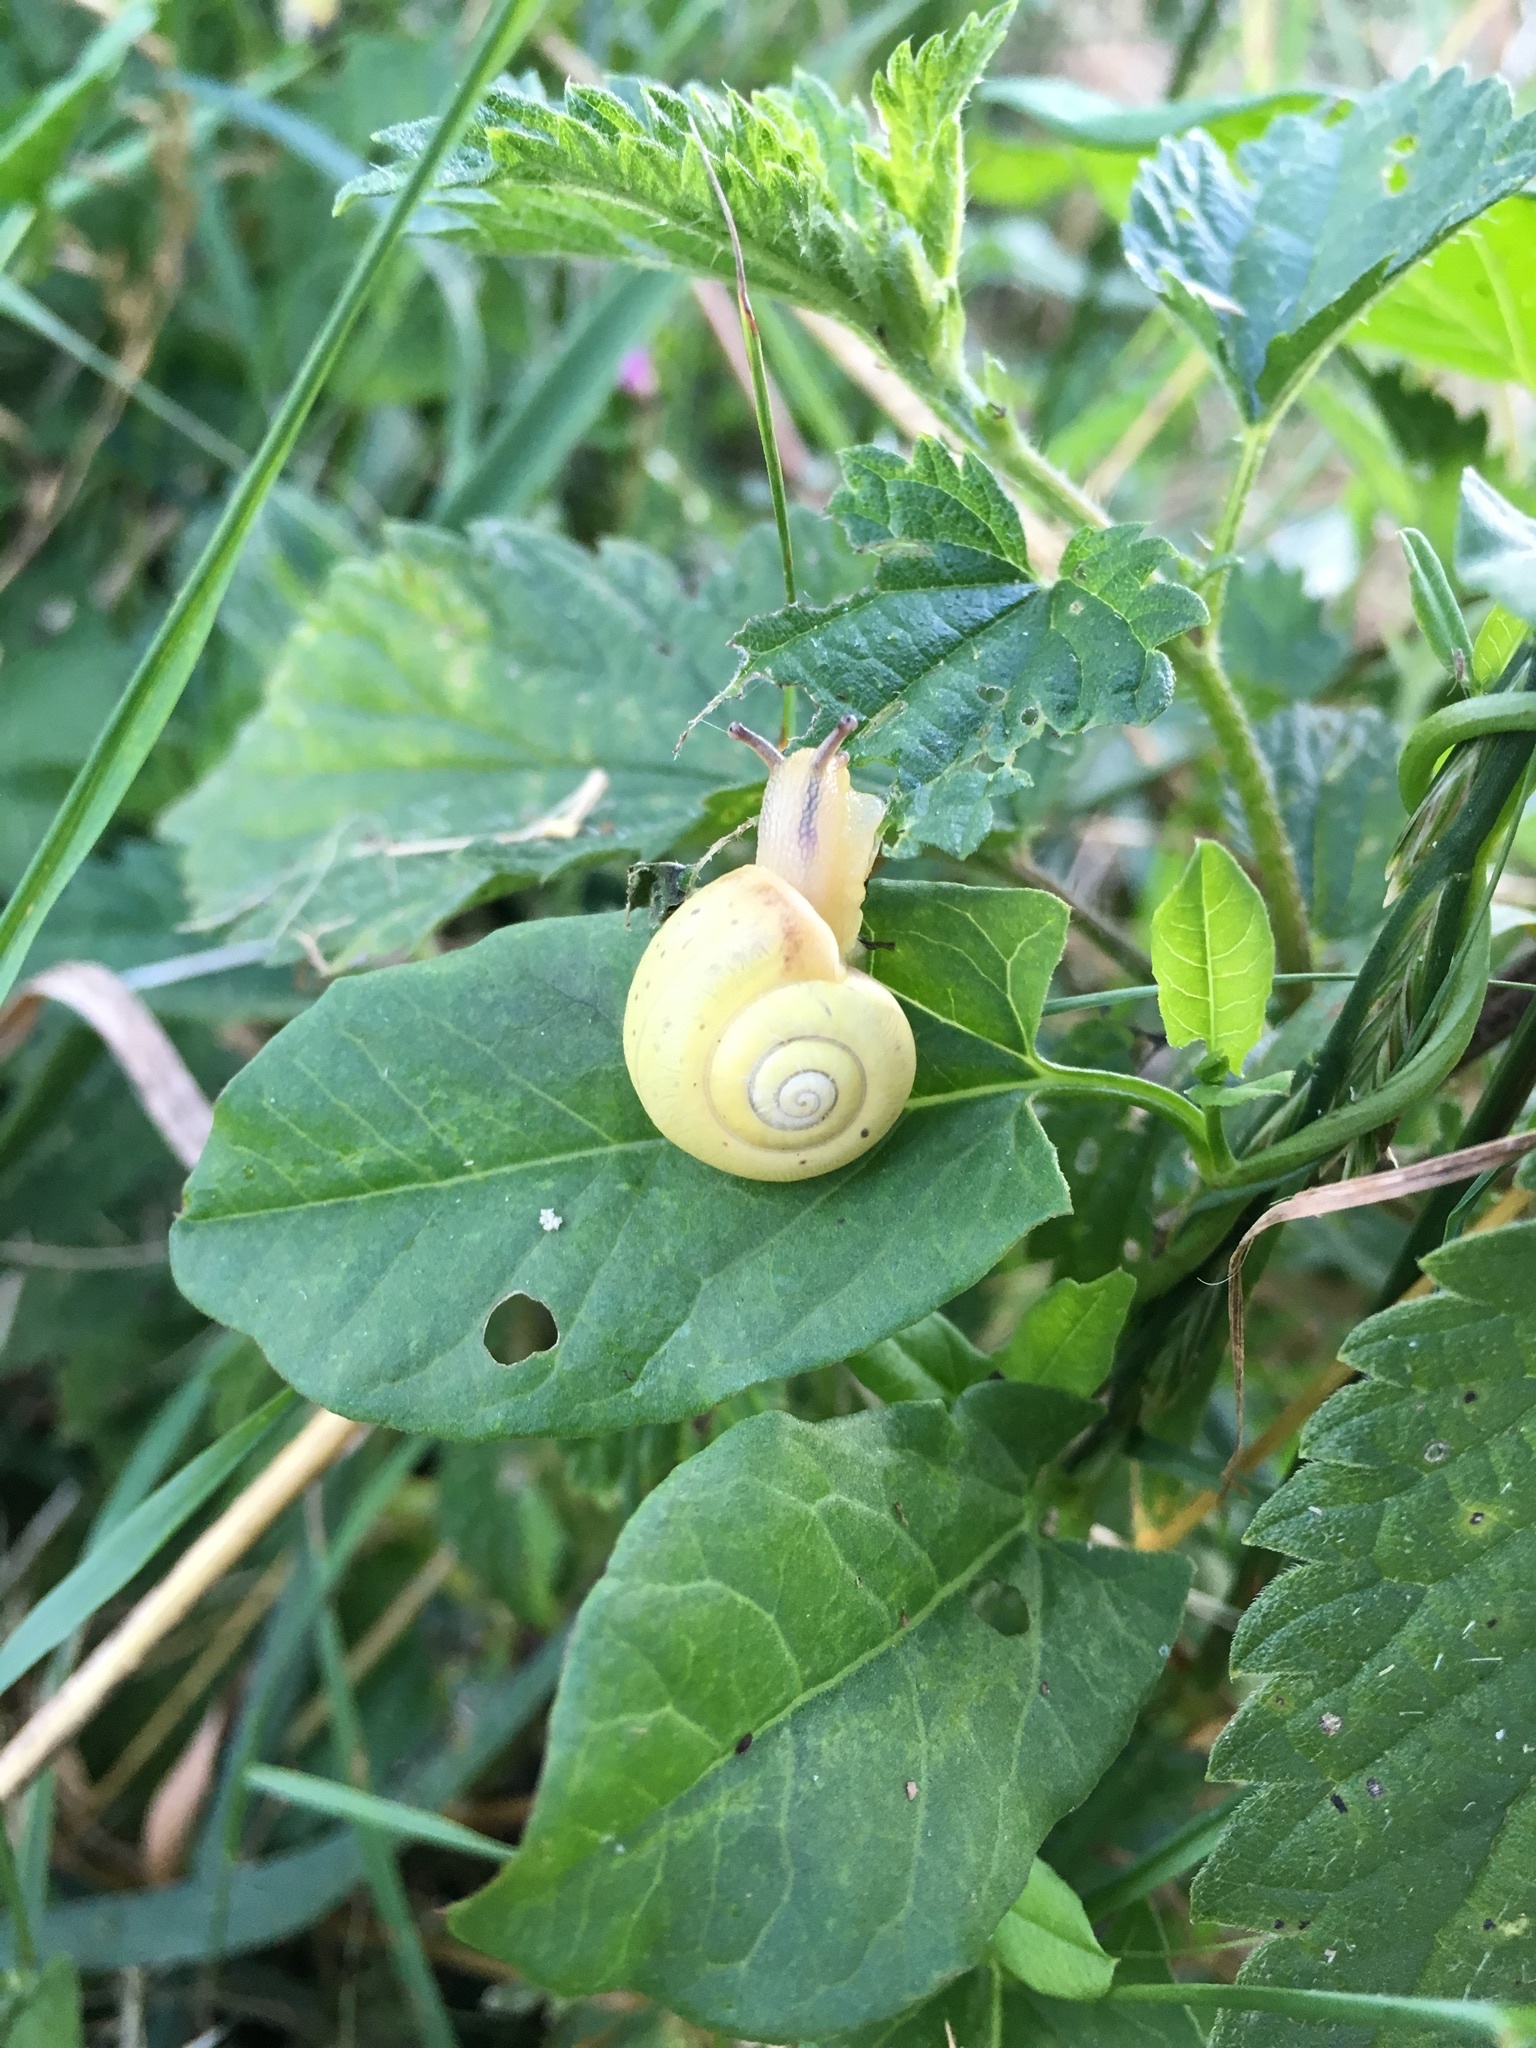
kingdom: Animalia
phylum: Mollusca
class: Gastropoda
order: Stylommatophora
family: Camaenidae
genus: Fruticicola
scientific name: Fruticicola fruticum
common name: Bush snail
